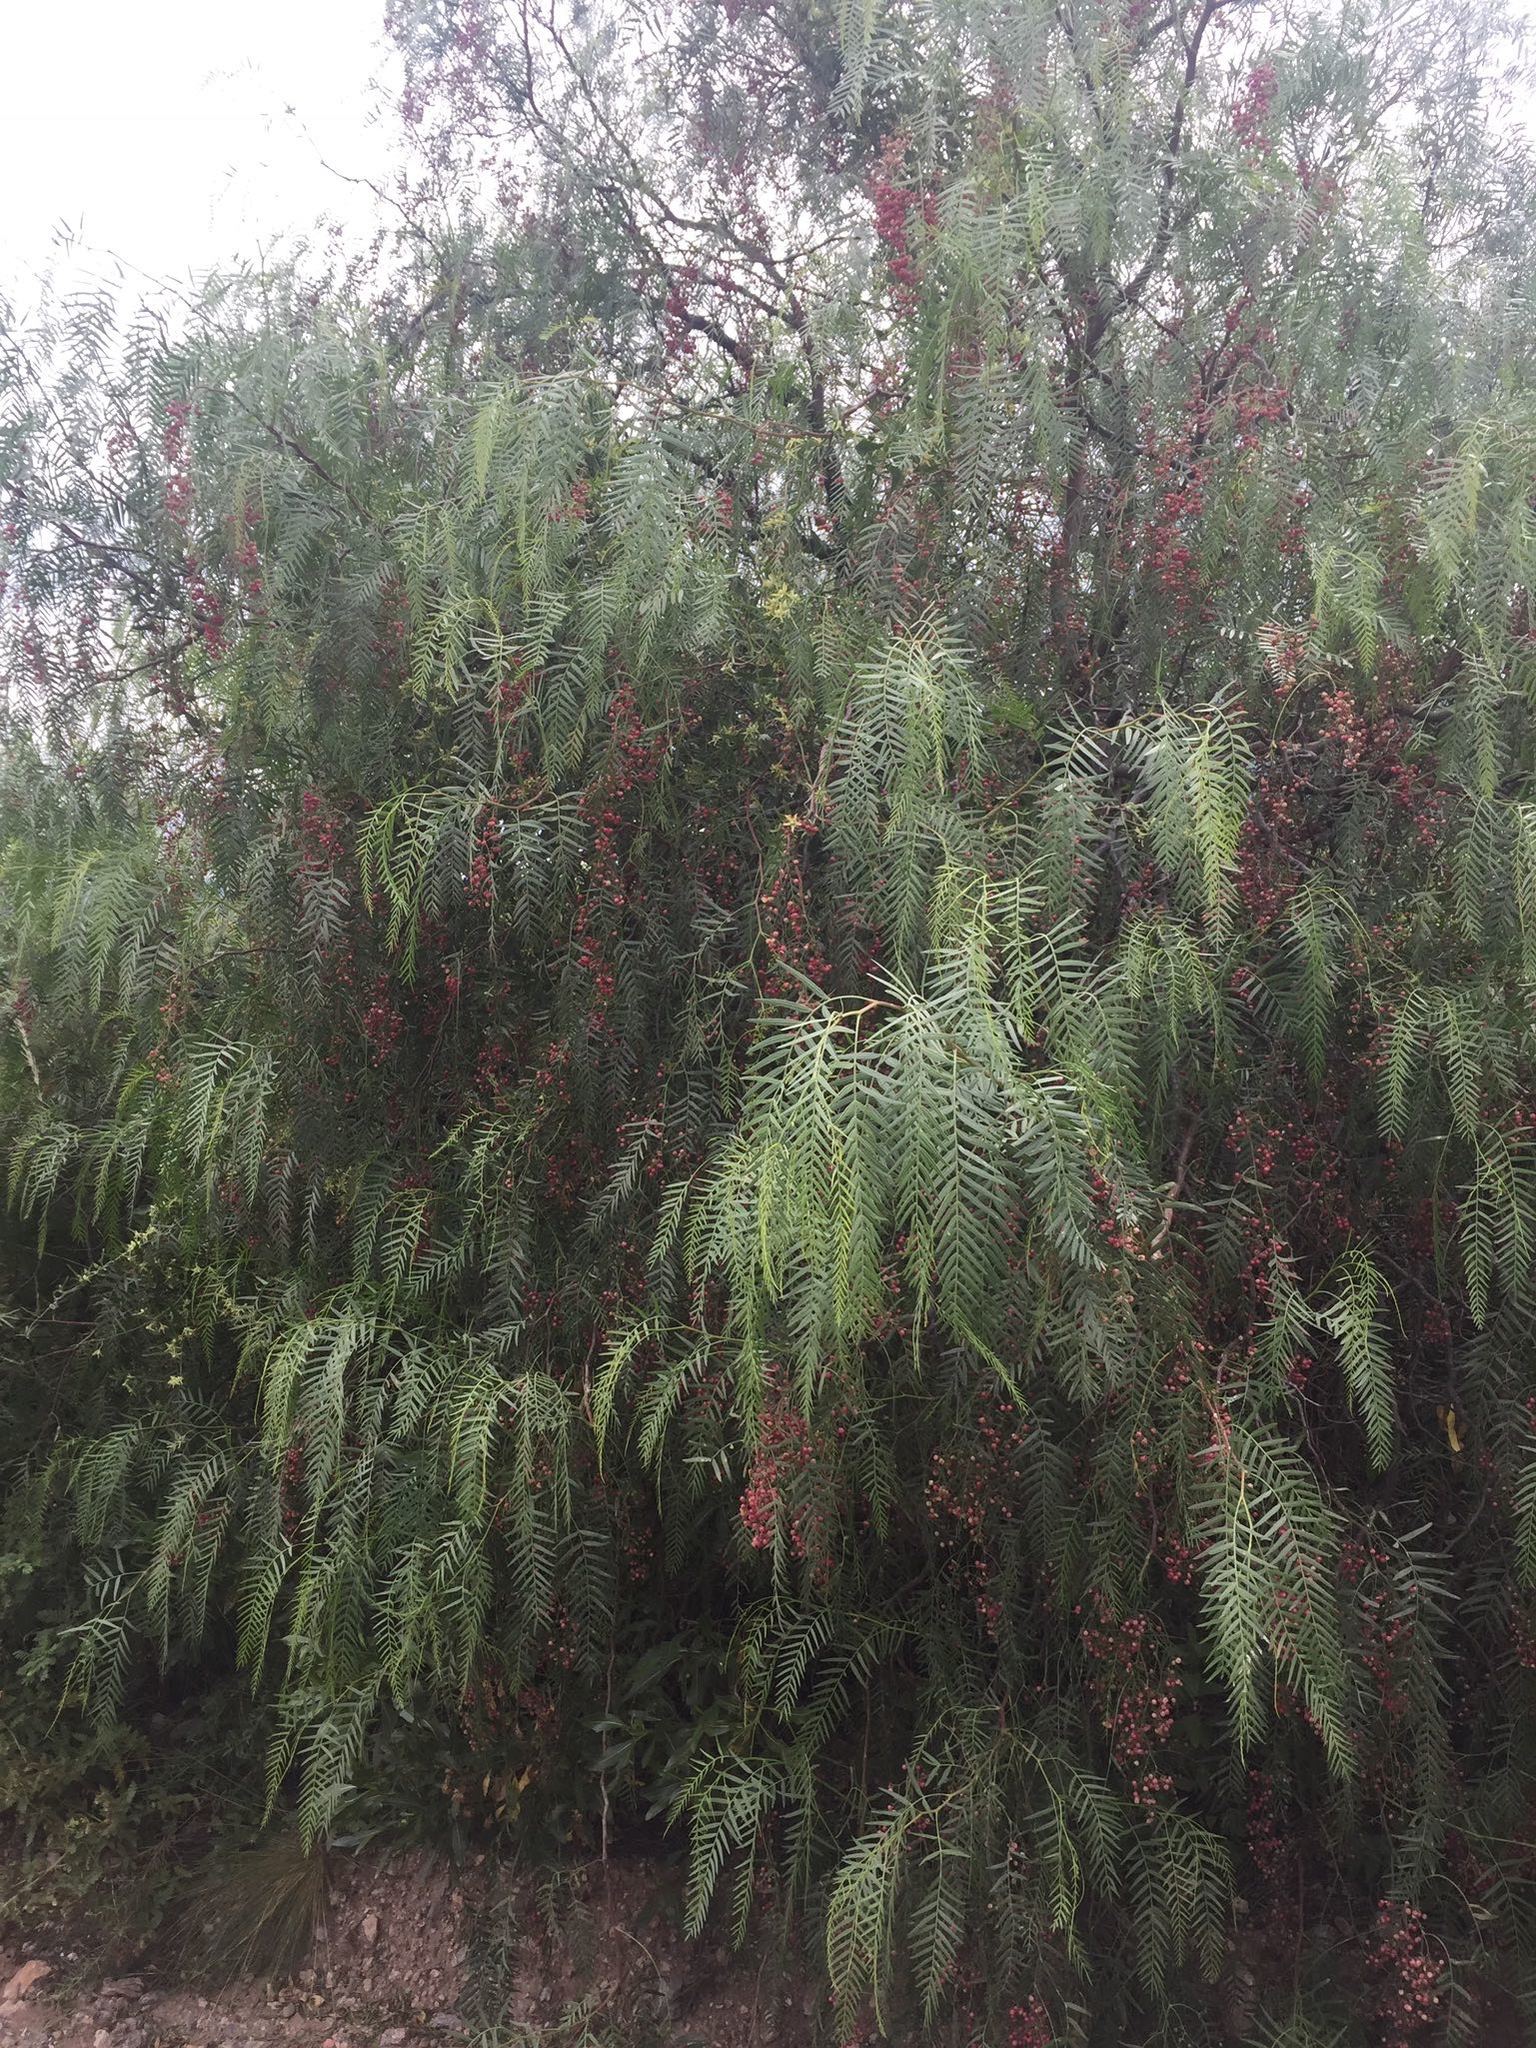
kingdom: Plantae
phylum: Tracheophyta
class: Magnoliopsida
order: Sapindales
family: Anacardiaceae
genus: Schinus
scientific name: Schinus areira
